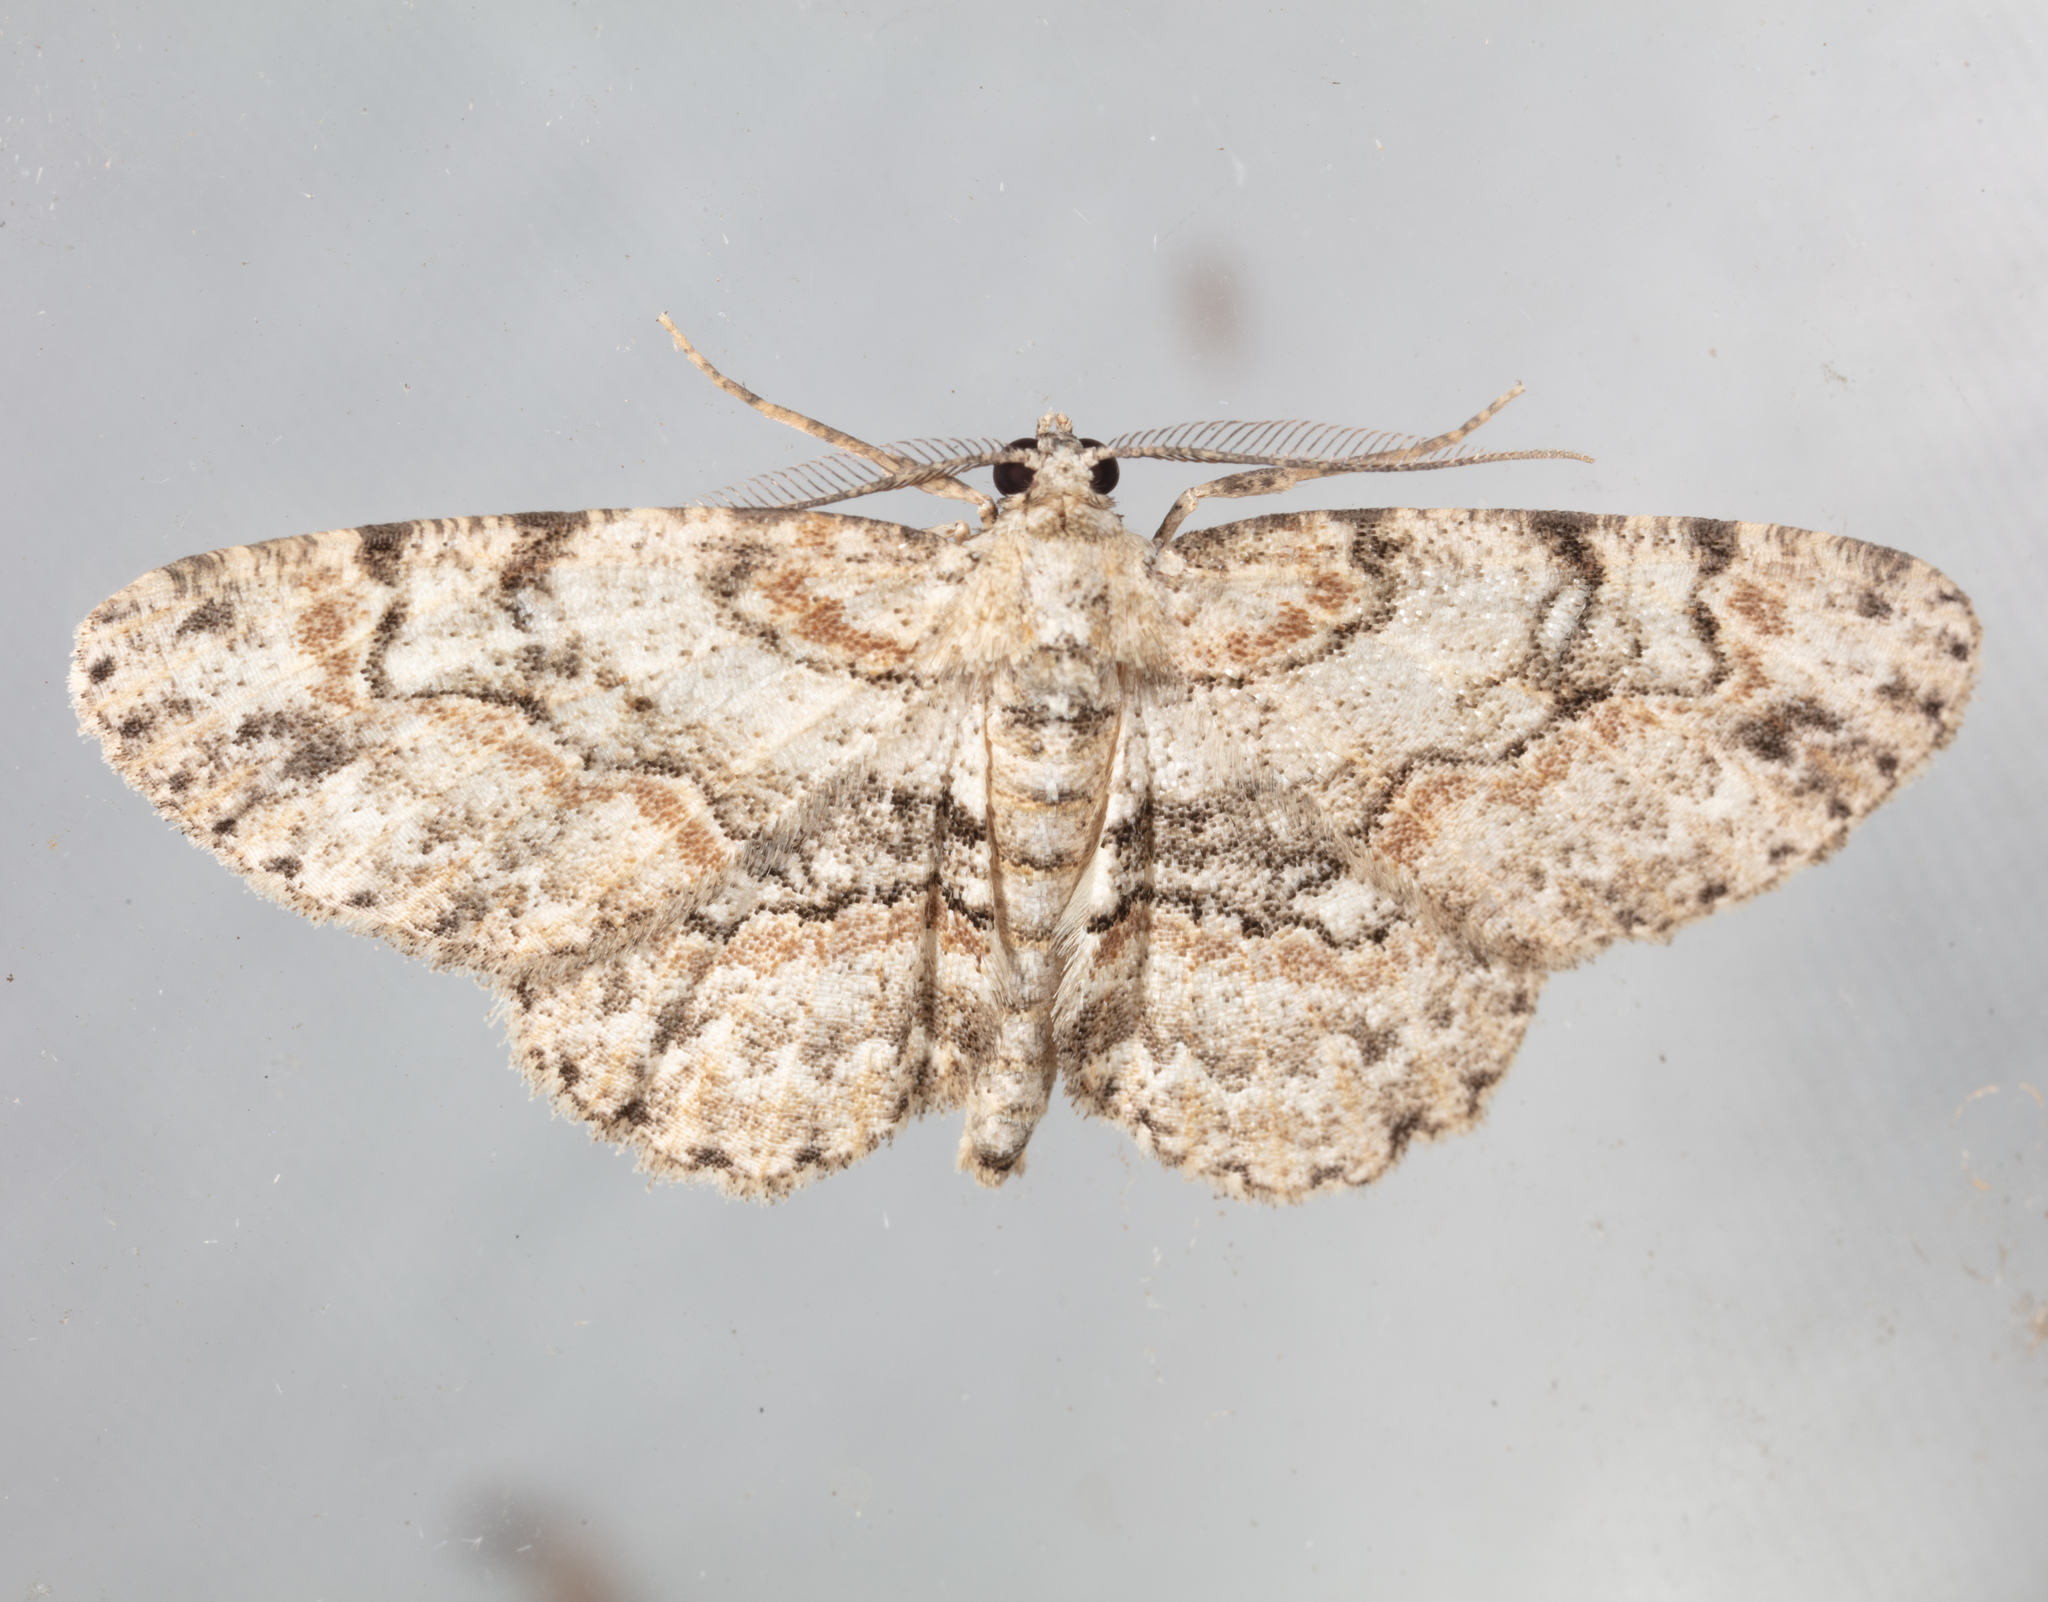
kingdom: Animalia
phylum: Arthropoda
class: Insecta
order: Lepidoptera
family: Geometridae
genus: Iridopsis
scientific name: Iridopsis defectaria
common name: Brown-shaded gray
